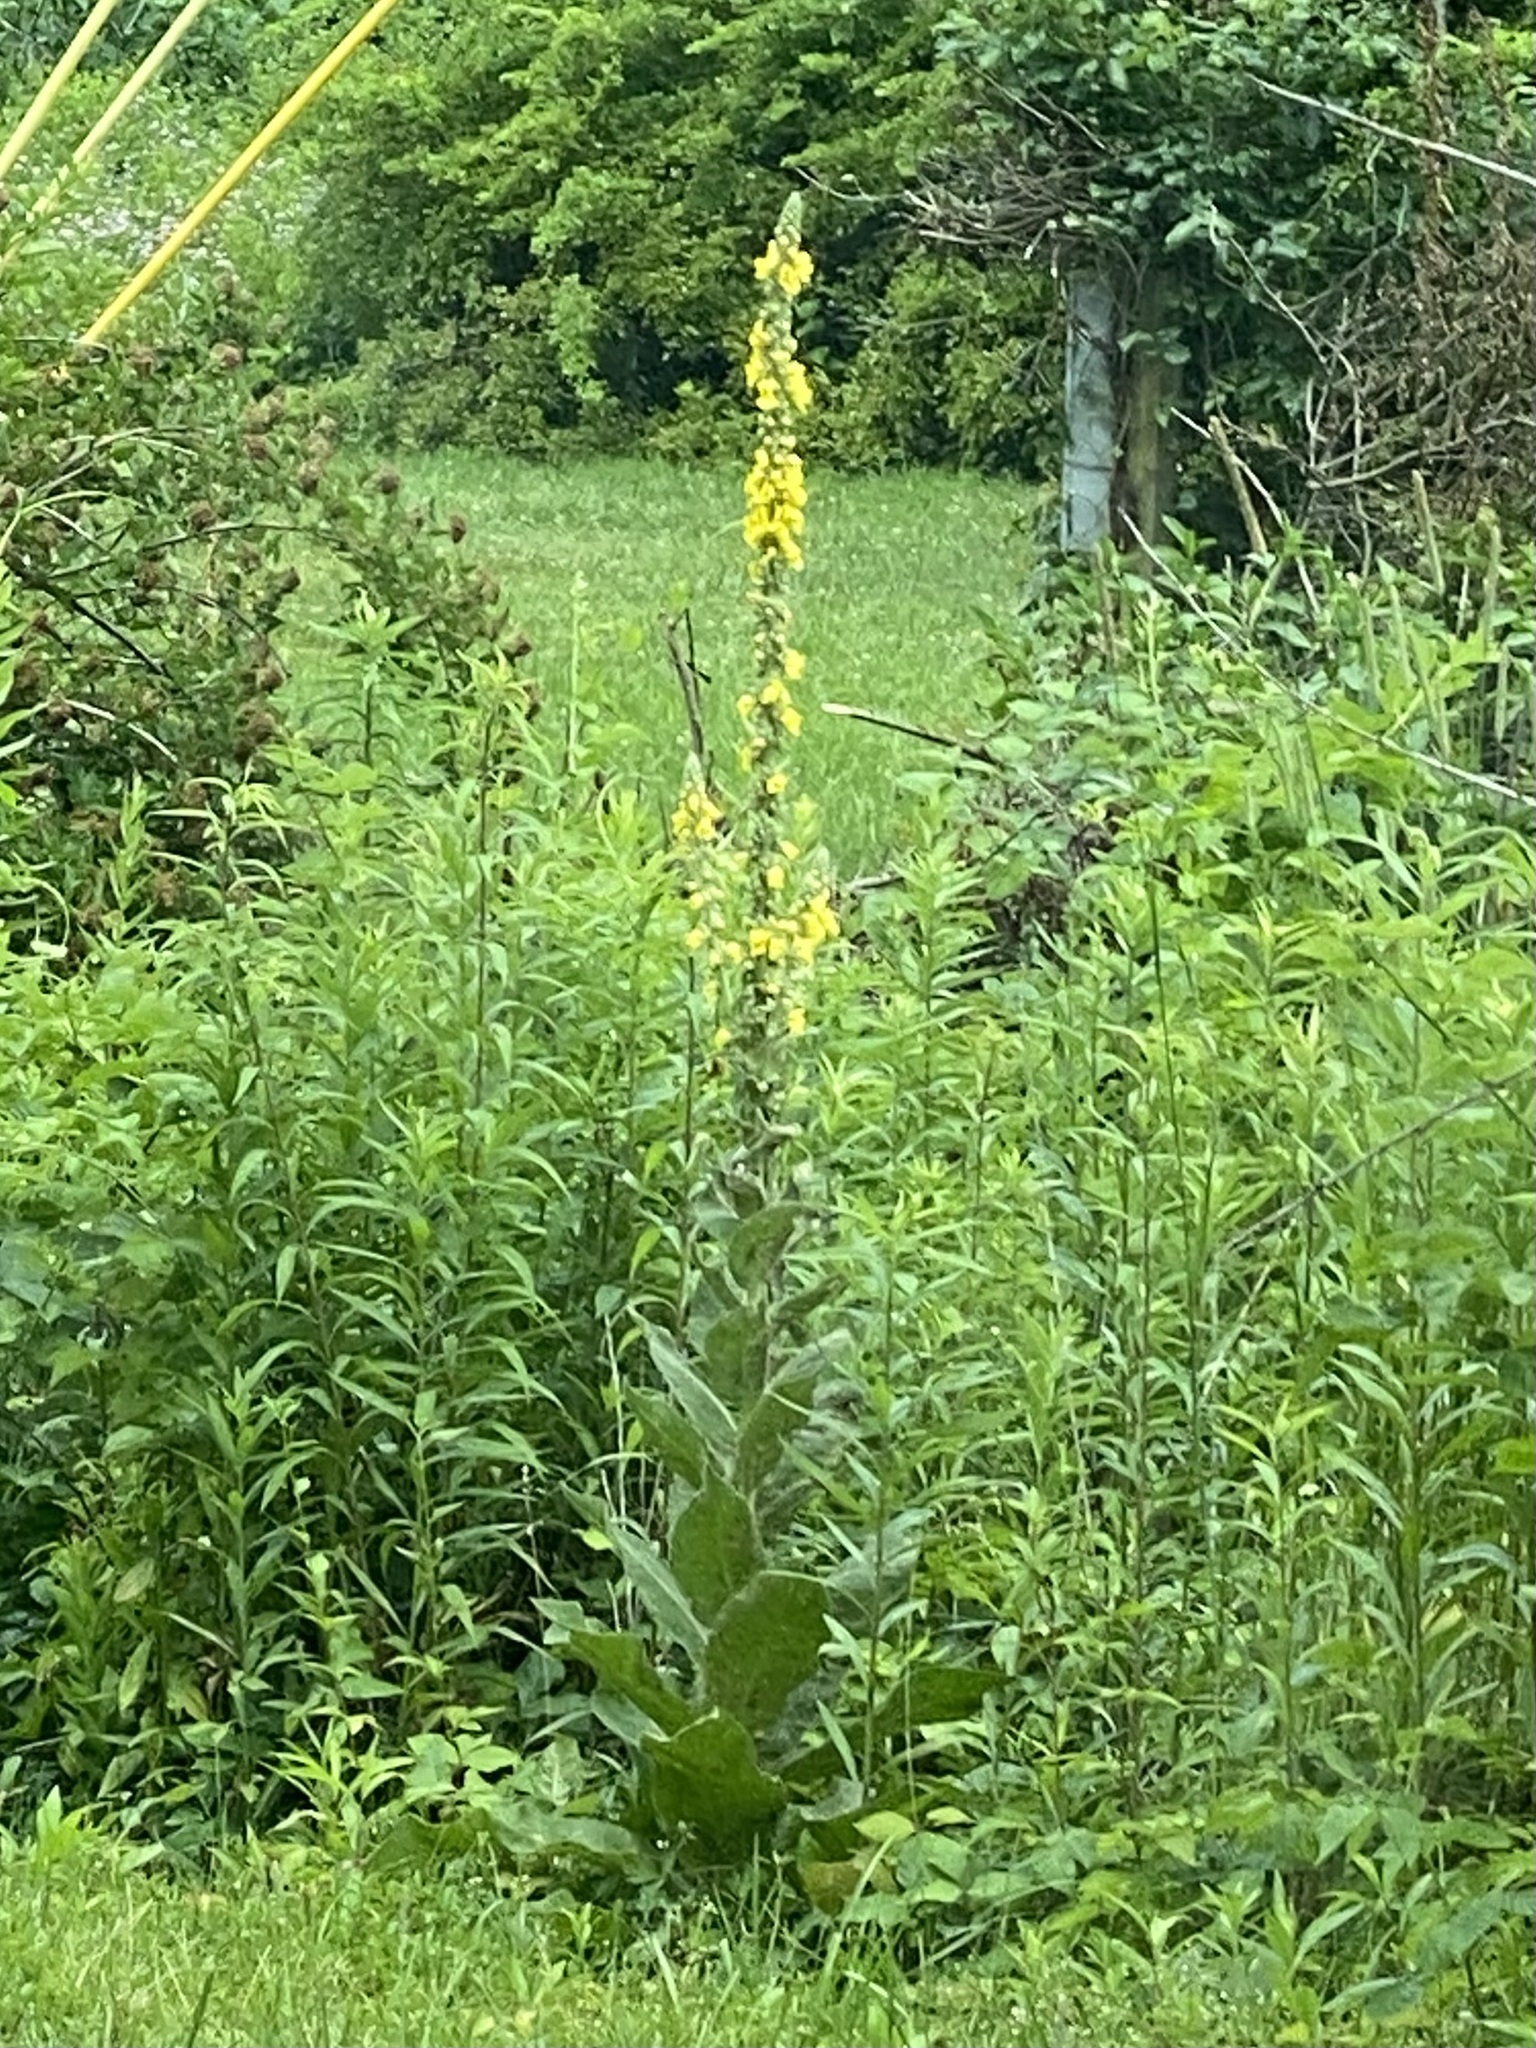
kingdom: Plantae
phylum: Tracheophyta
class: Magnoliopsida
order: Lamiales
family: Scrophulariaceae
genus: Verbascum
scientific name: Verbascum thapsus
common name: Common mullein
